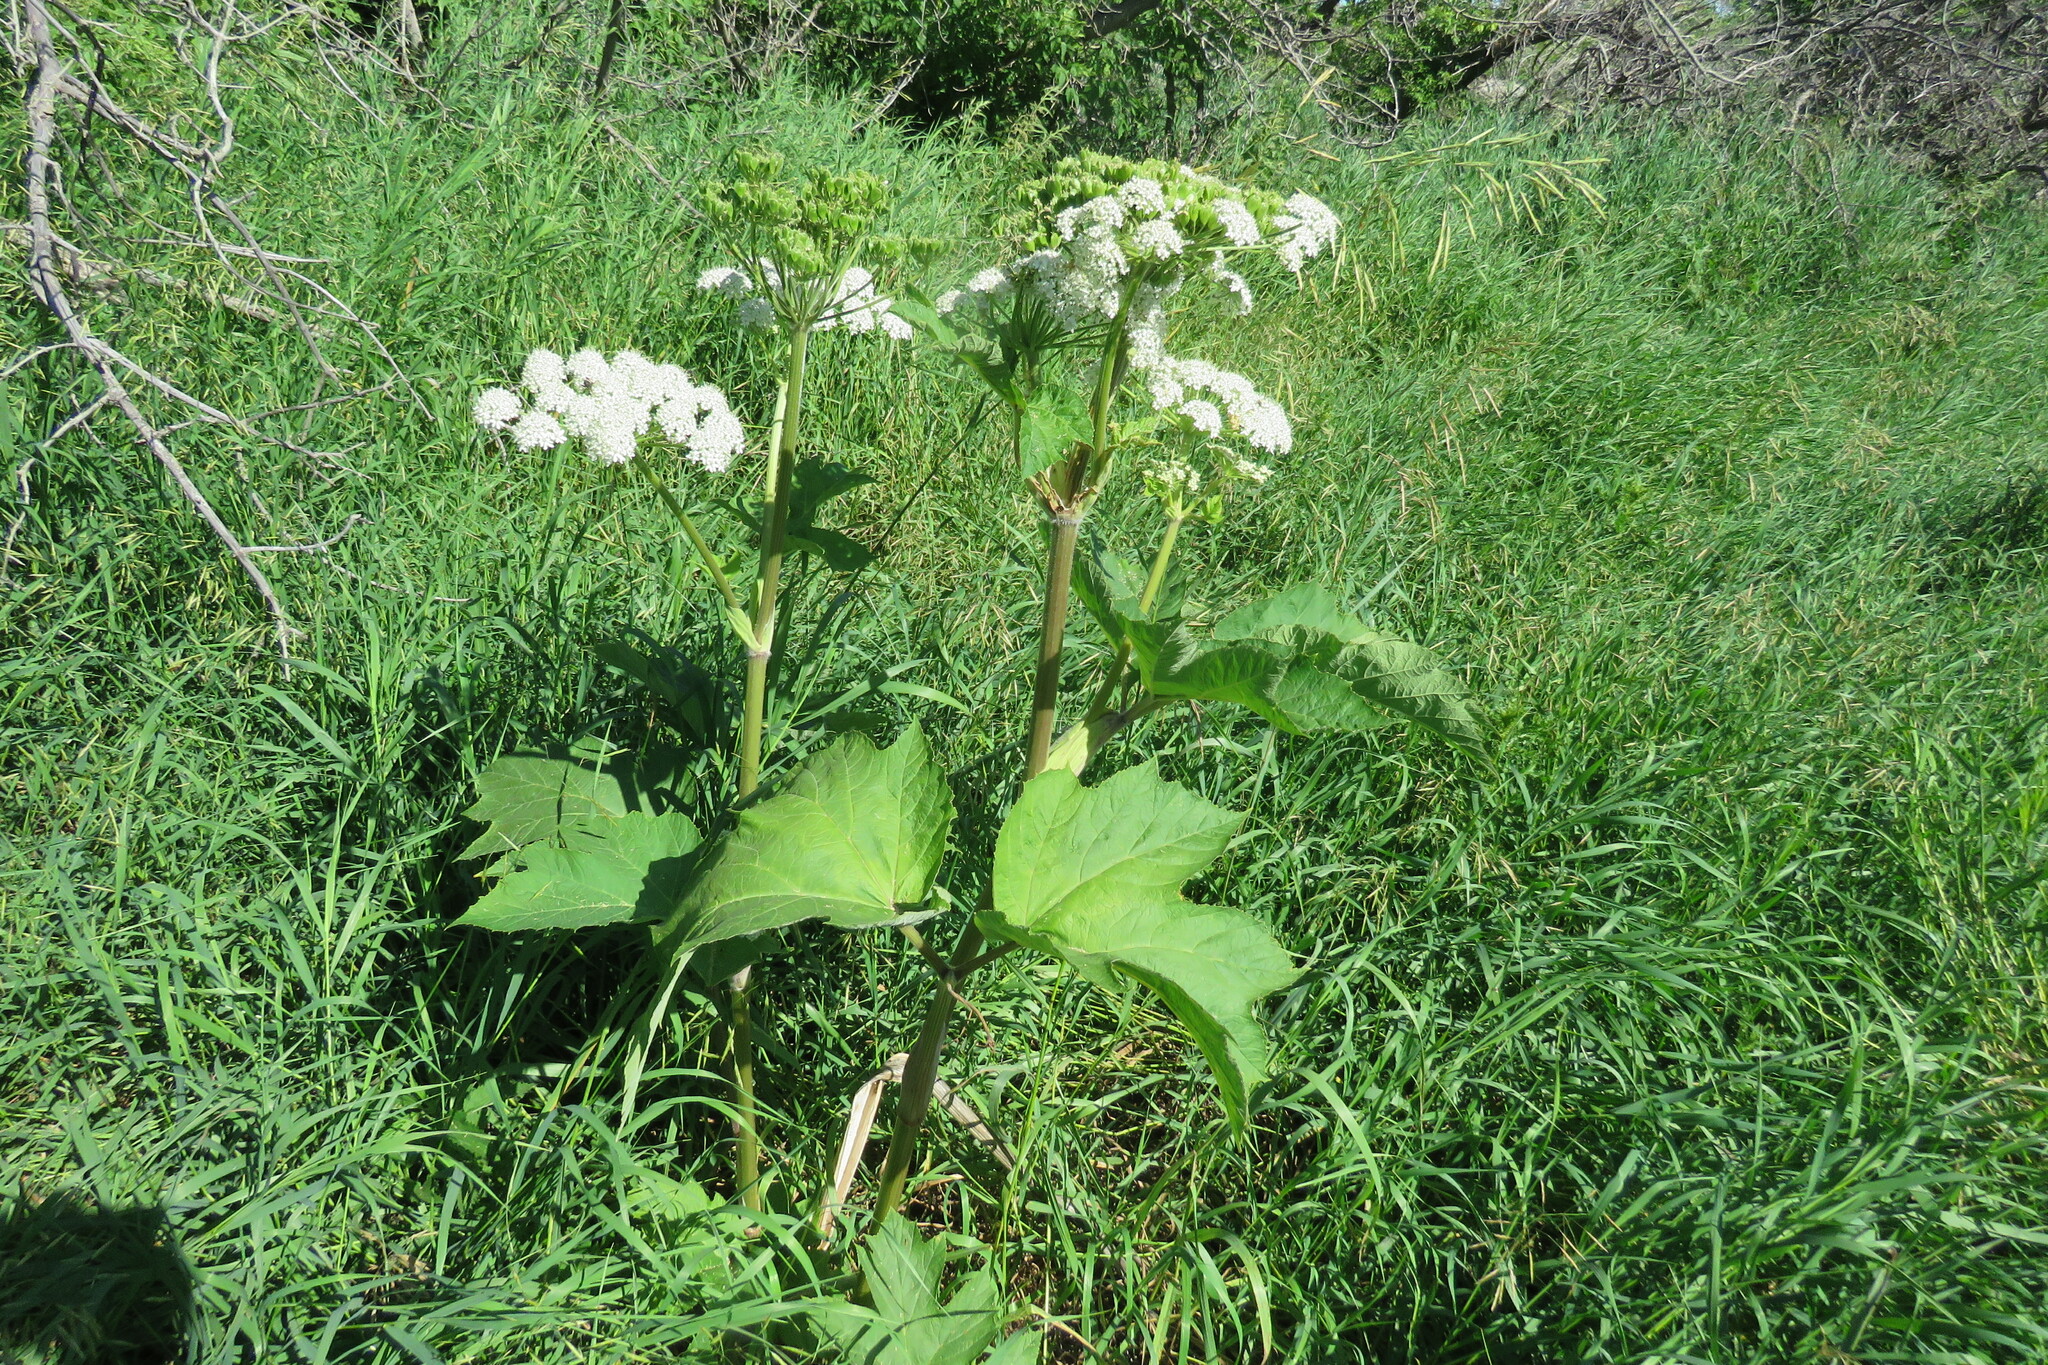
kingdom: Plantae
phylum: Tracheophyta
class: Magnoliopsida
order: Apiales
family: Apiaceae
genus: Heracleum
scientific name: Heracleum maximum
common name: American cow parsnip
